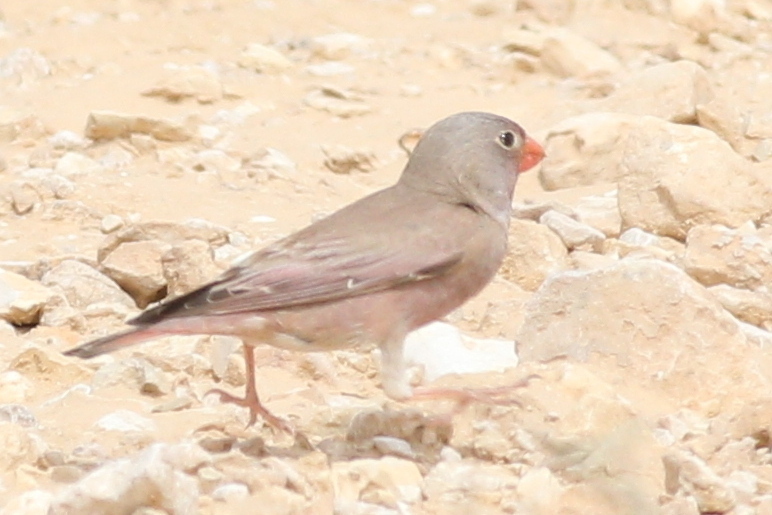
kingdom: Animalia
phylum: Chordata
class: Aves
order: Passeriformes
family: Fringillidae
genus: Bucanetes
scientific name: Bucanetes githagineus
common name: Trumpeter finch
